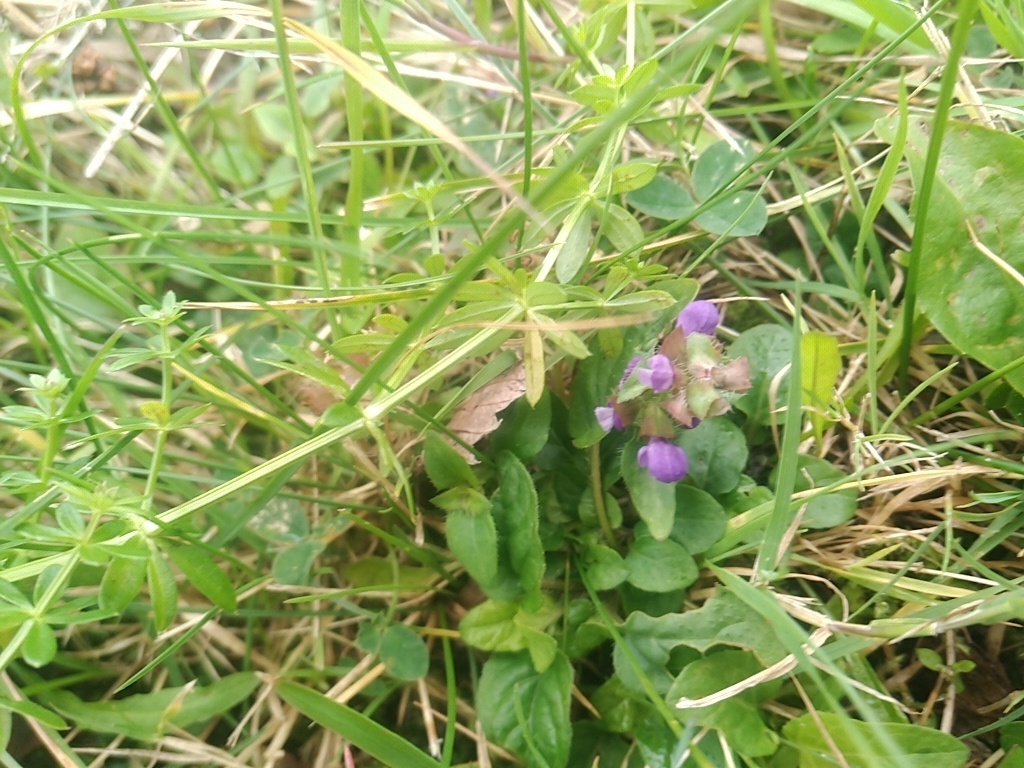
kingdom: Plantae
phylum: Tracheophyta
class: Magnoliopsida
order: Lamiales
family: Lamiaceae
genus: Prunella
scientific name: Prunella vulgaris
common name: Heal-all
